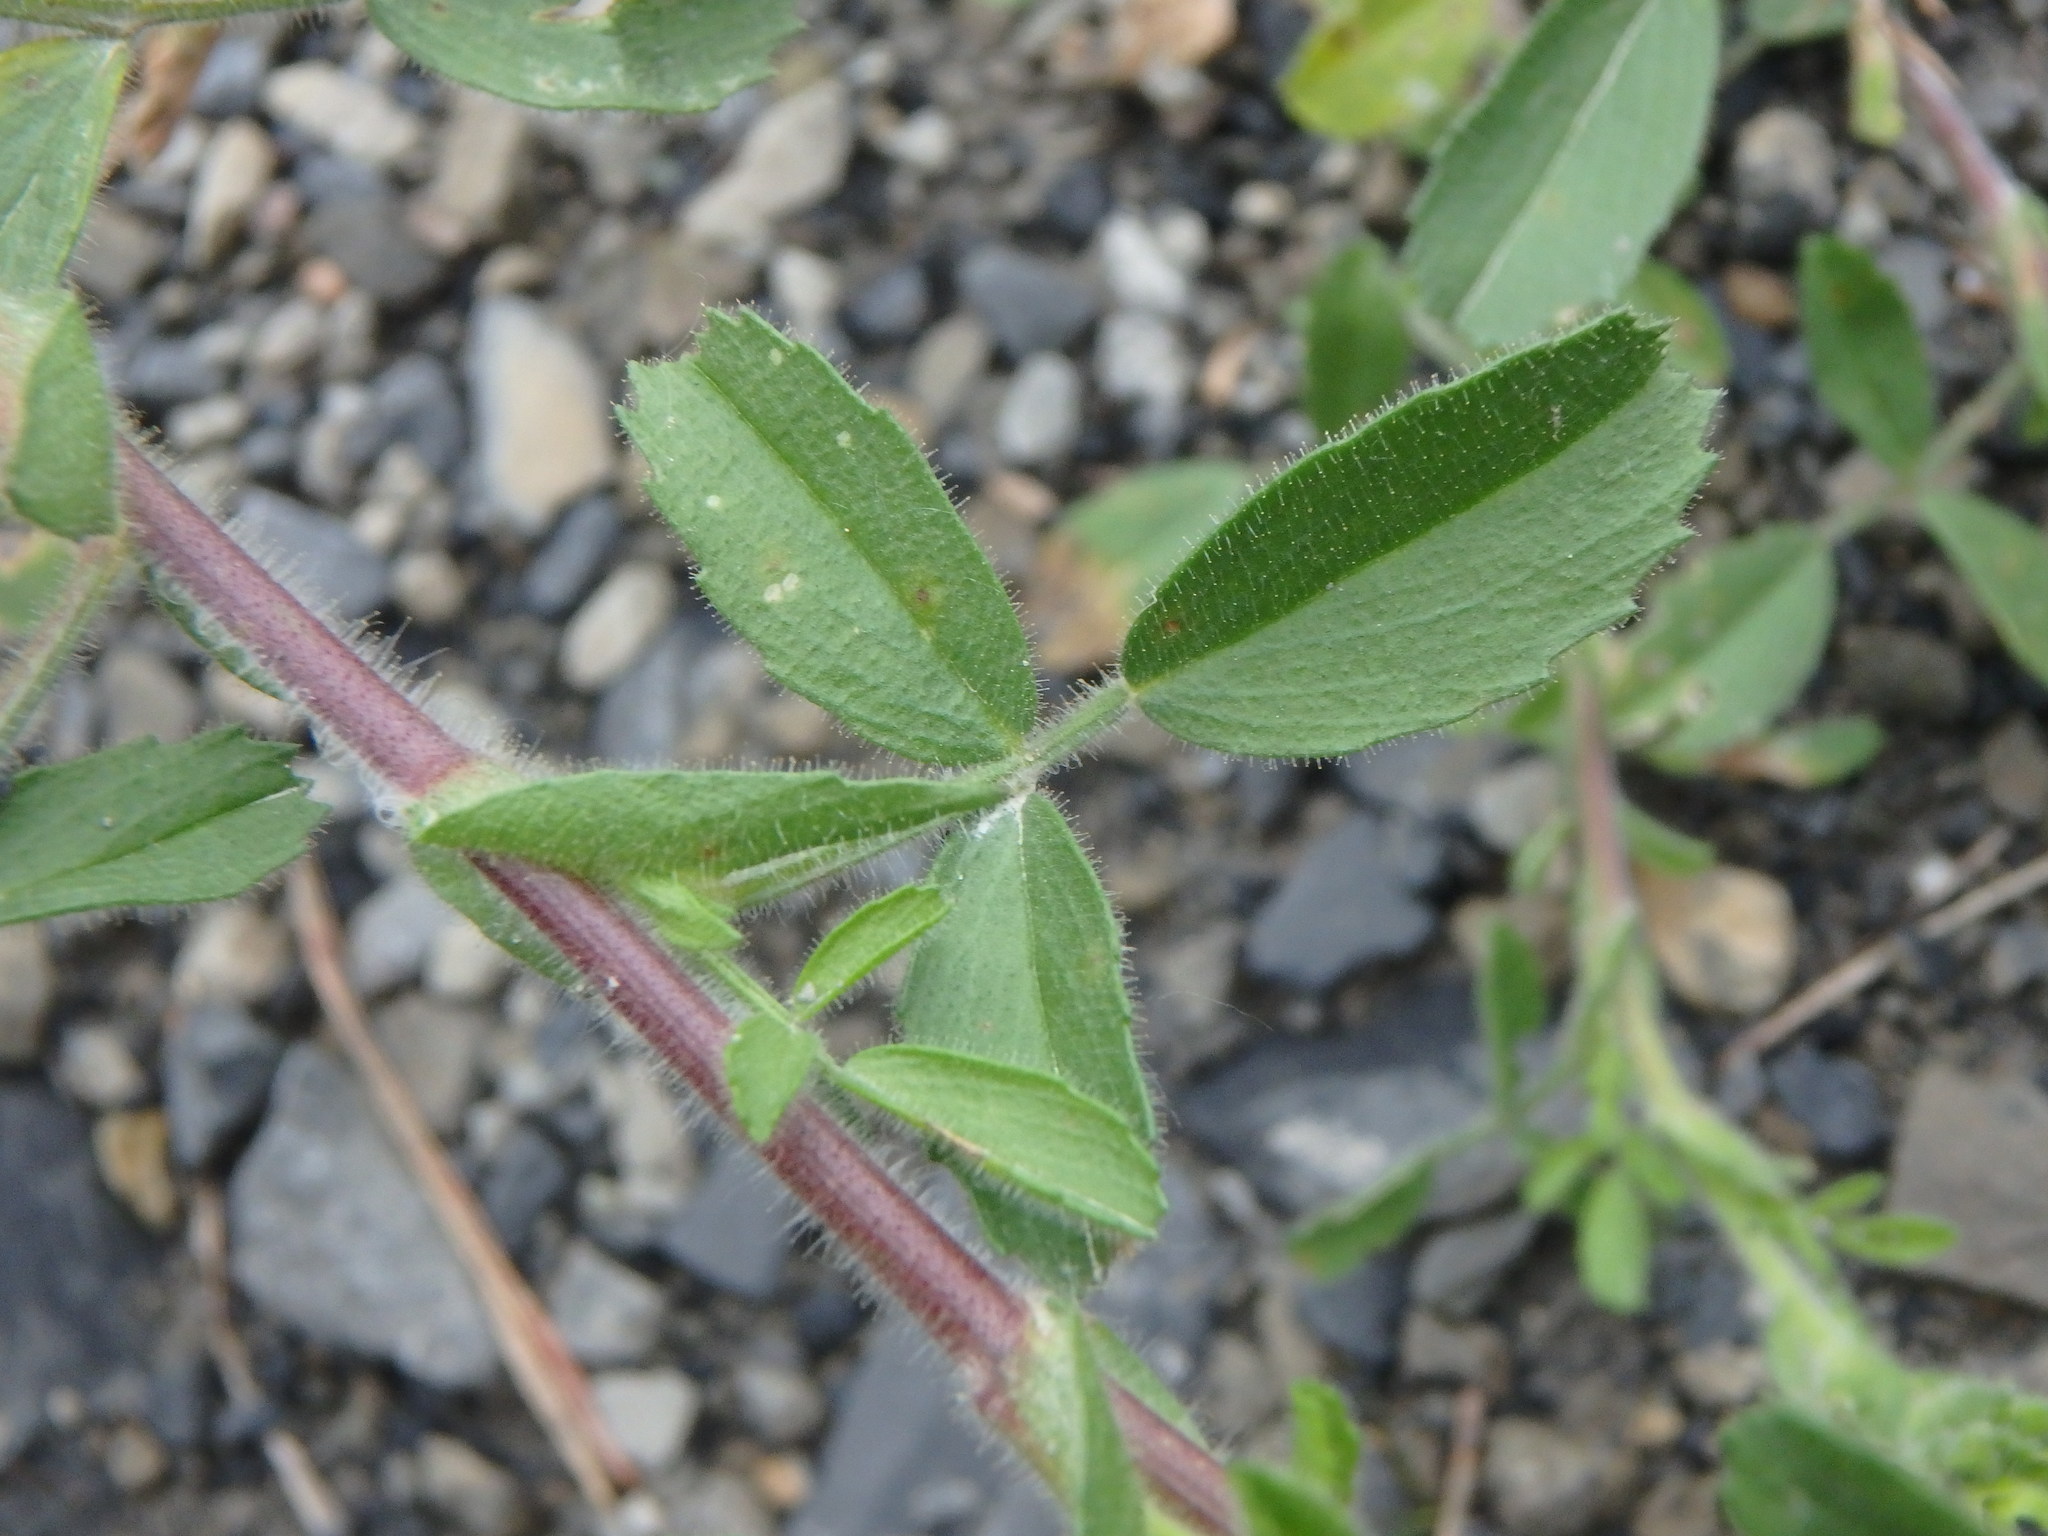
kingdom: Plantae
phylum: Tracheophyta
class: Magnoliopsida
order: Fabales
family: Fabaceae
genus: Ononis
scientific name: Ononis natrix
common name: Yellow restharrow
